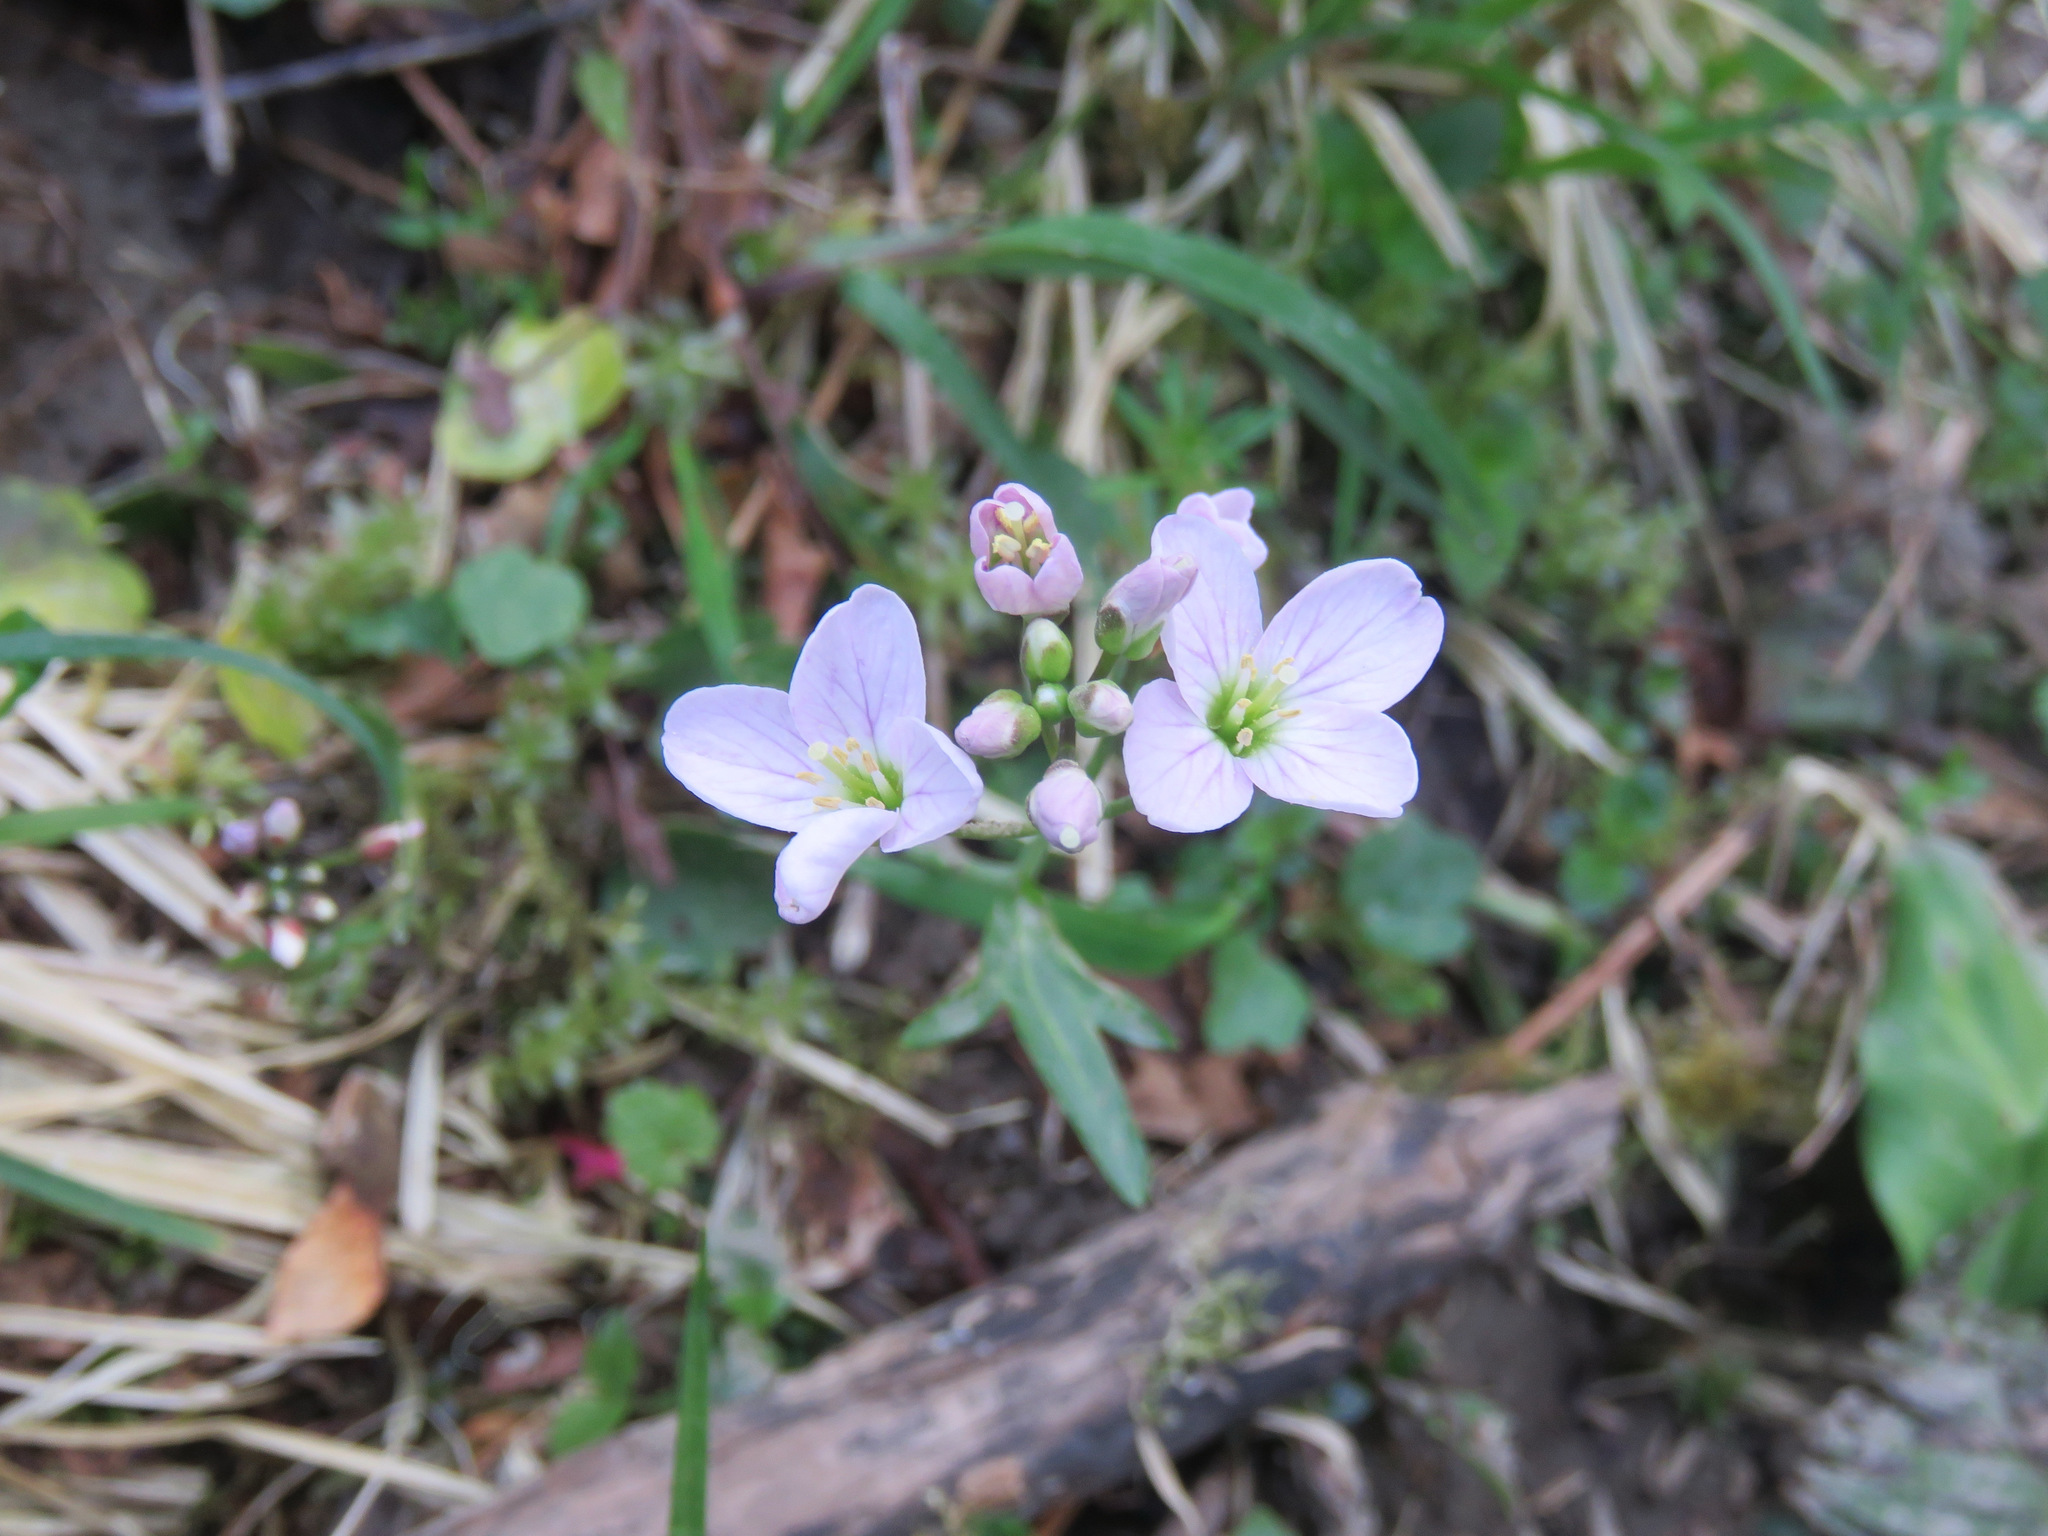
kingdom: Plantae
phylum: Tracheophyta
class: Magnoliopsida
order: Brassicales
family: Brassicaceae
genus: Cardamine
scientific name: Cardamine nuttallii
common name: Nuttall's toothwort
